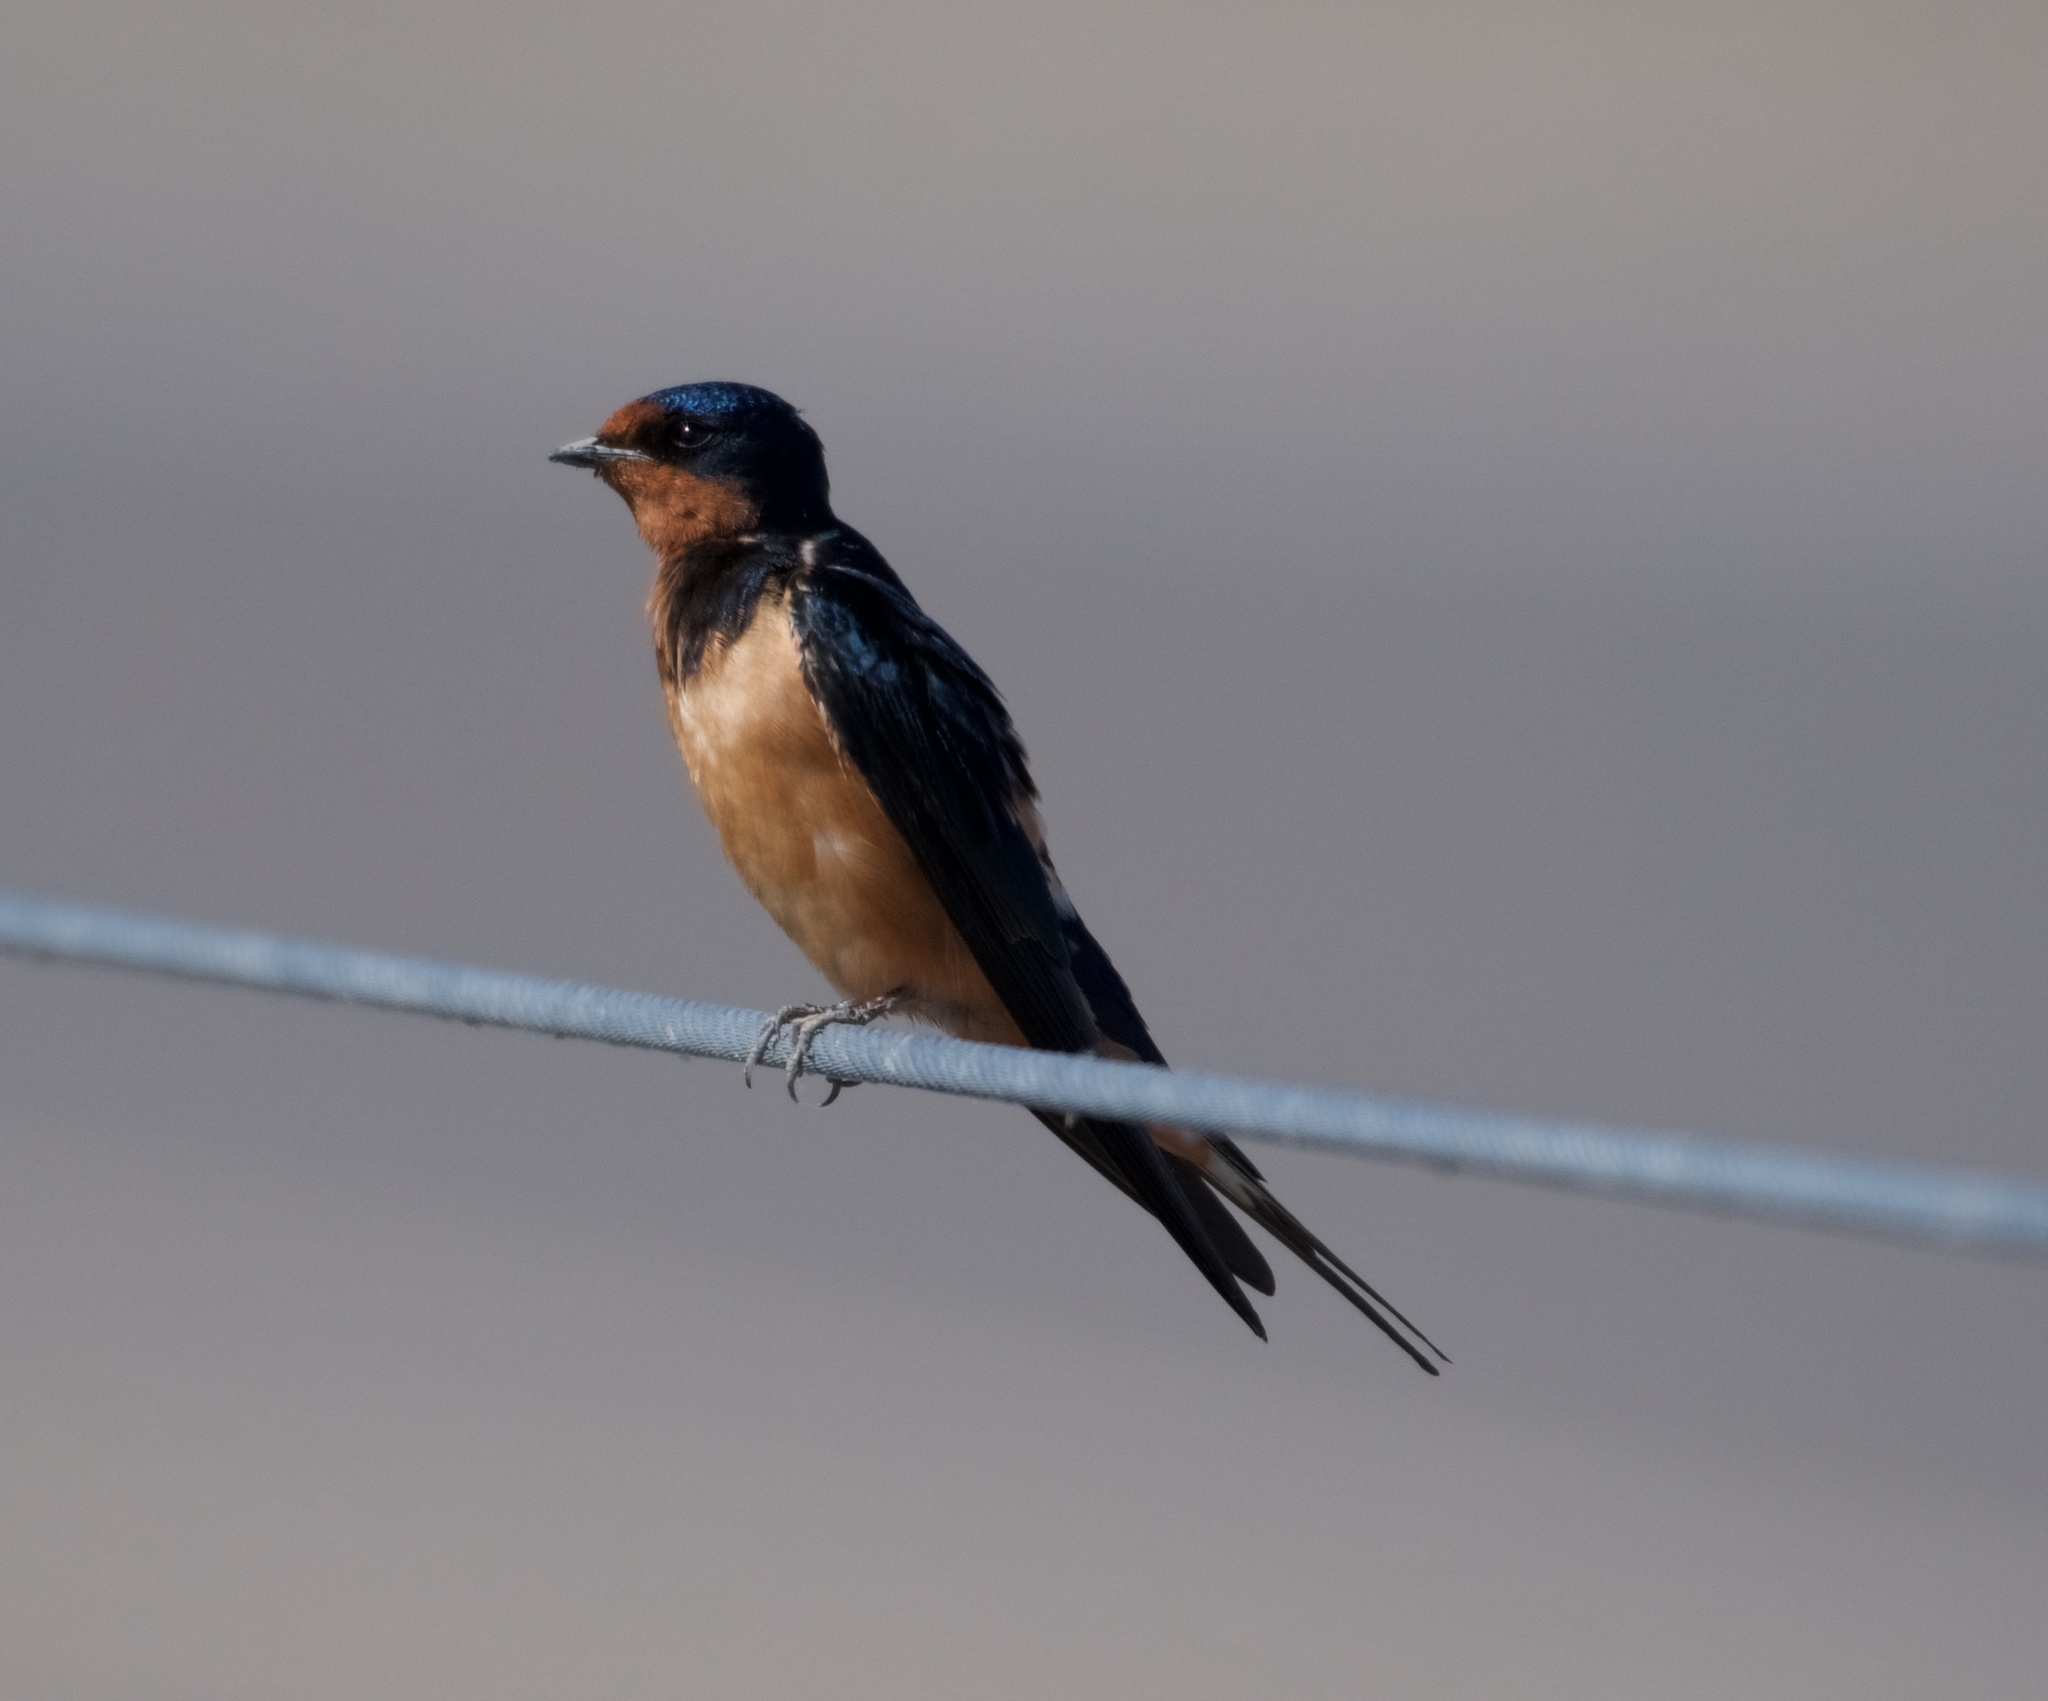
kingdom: Animalia
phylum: Chordata
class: Aves
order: Passeriformes
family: Hirundinidae
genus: Hirundo
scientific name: Hirundo rustica
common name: Barn swallow
